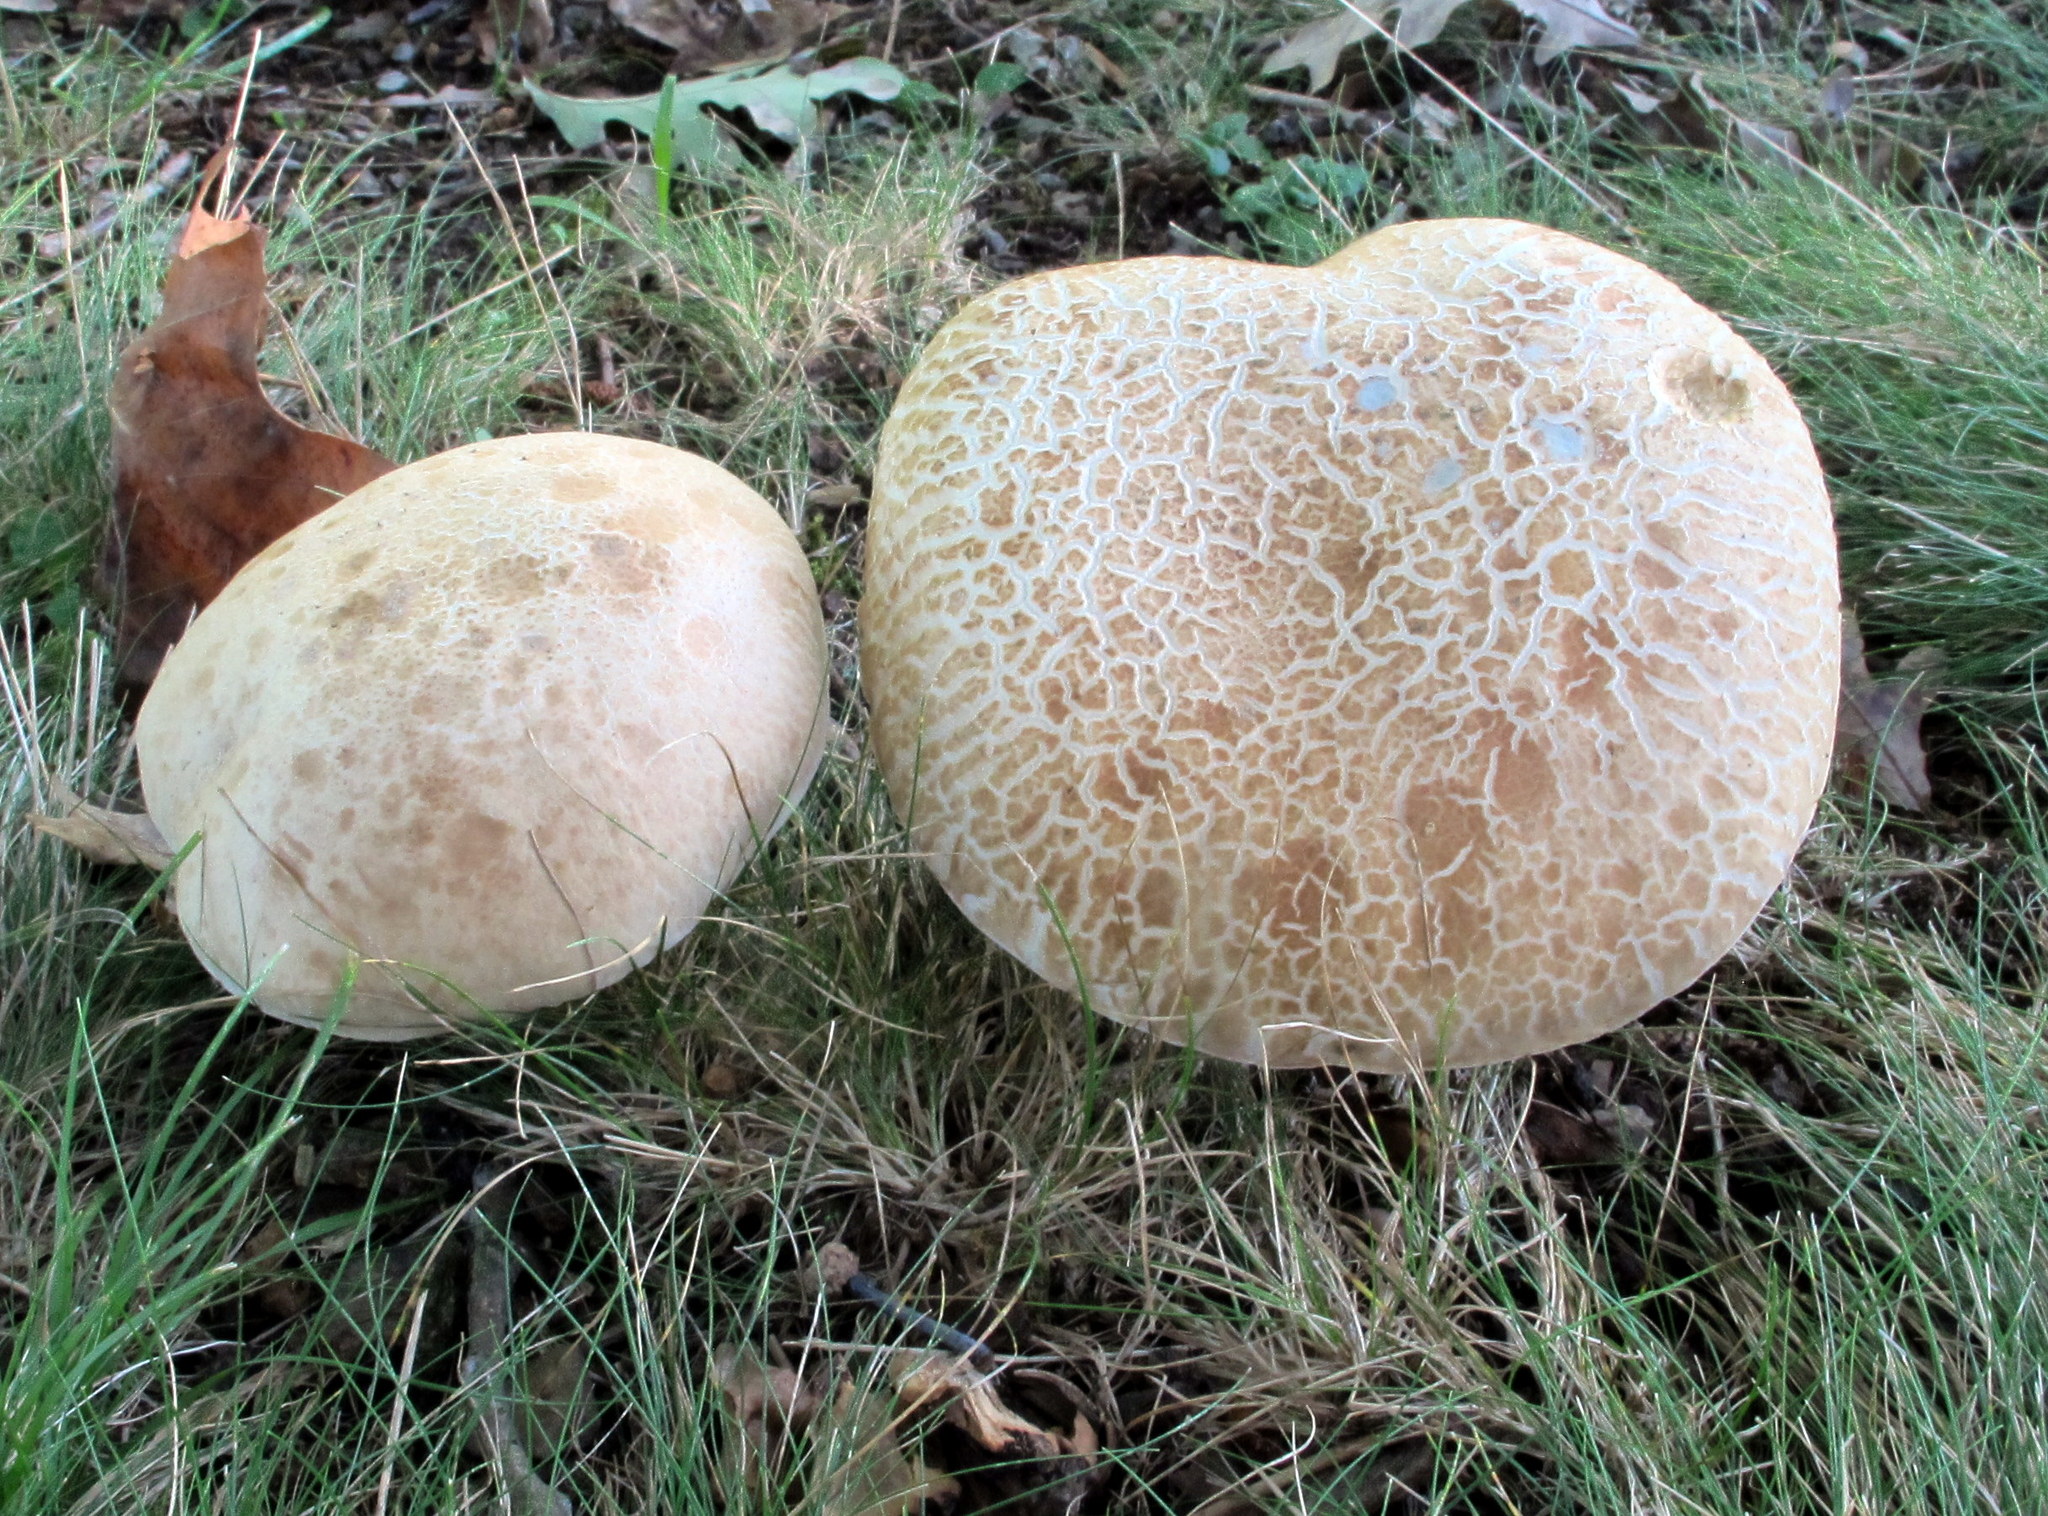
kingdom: Fungi
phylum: Basidiomycota
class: Agaricomycetes
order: Boletales
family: Boletaceae
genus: Caloboletus
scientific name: Caloboletus inedulis
